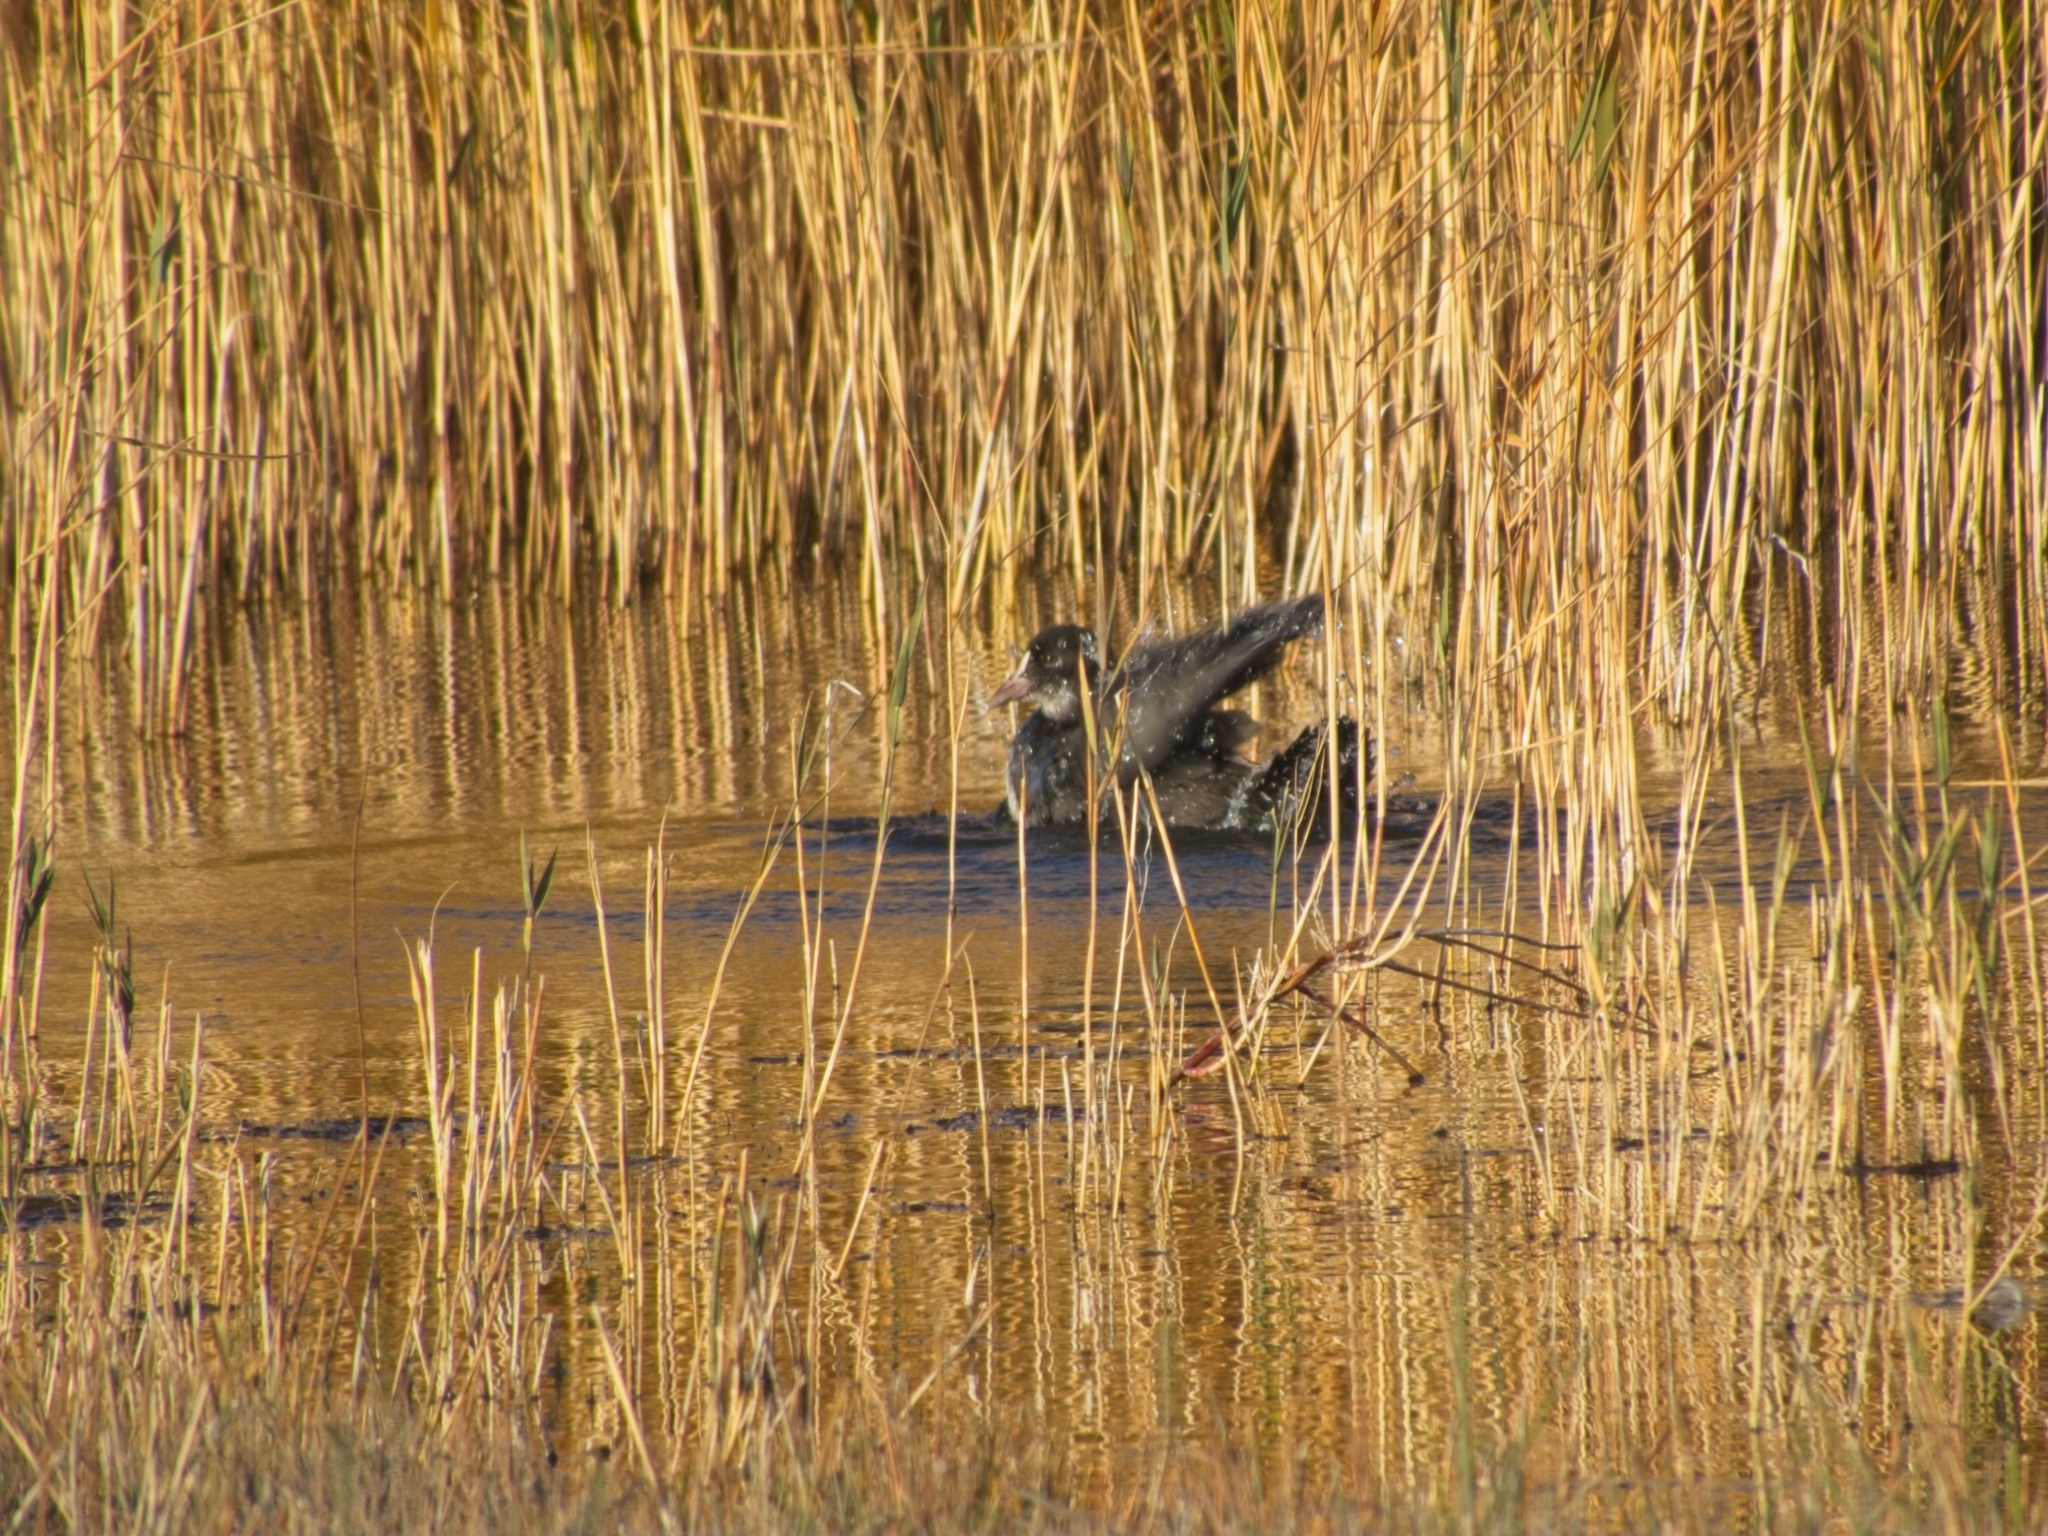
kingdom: Animalia
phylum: Chordata
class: Aves
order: Gruiformes
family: Rallidae
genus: Fulica
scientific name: Fulica atra
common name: Eurasian coot
